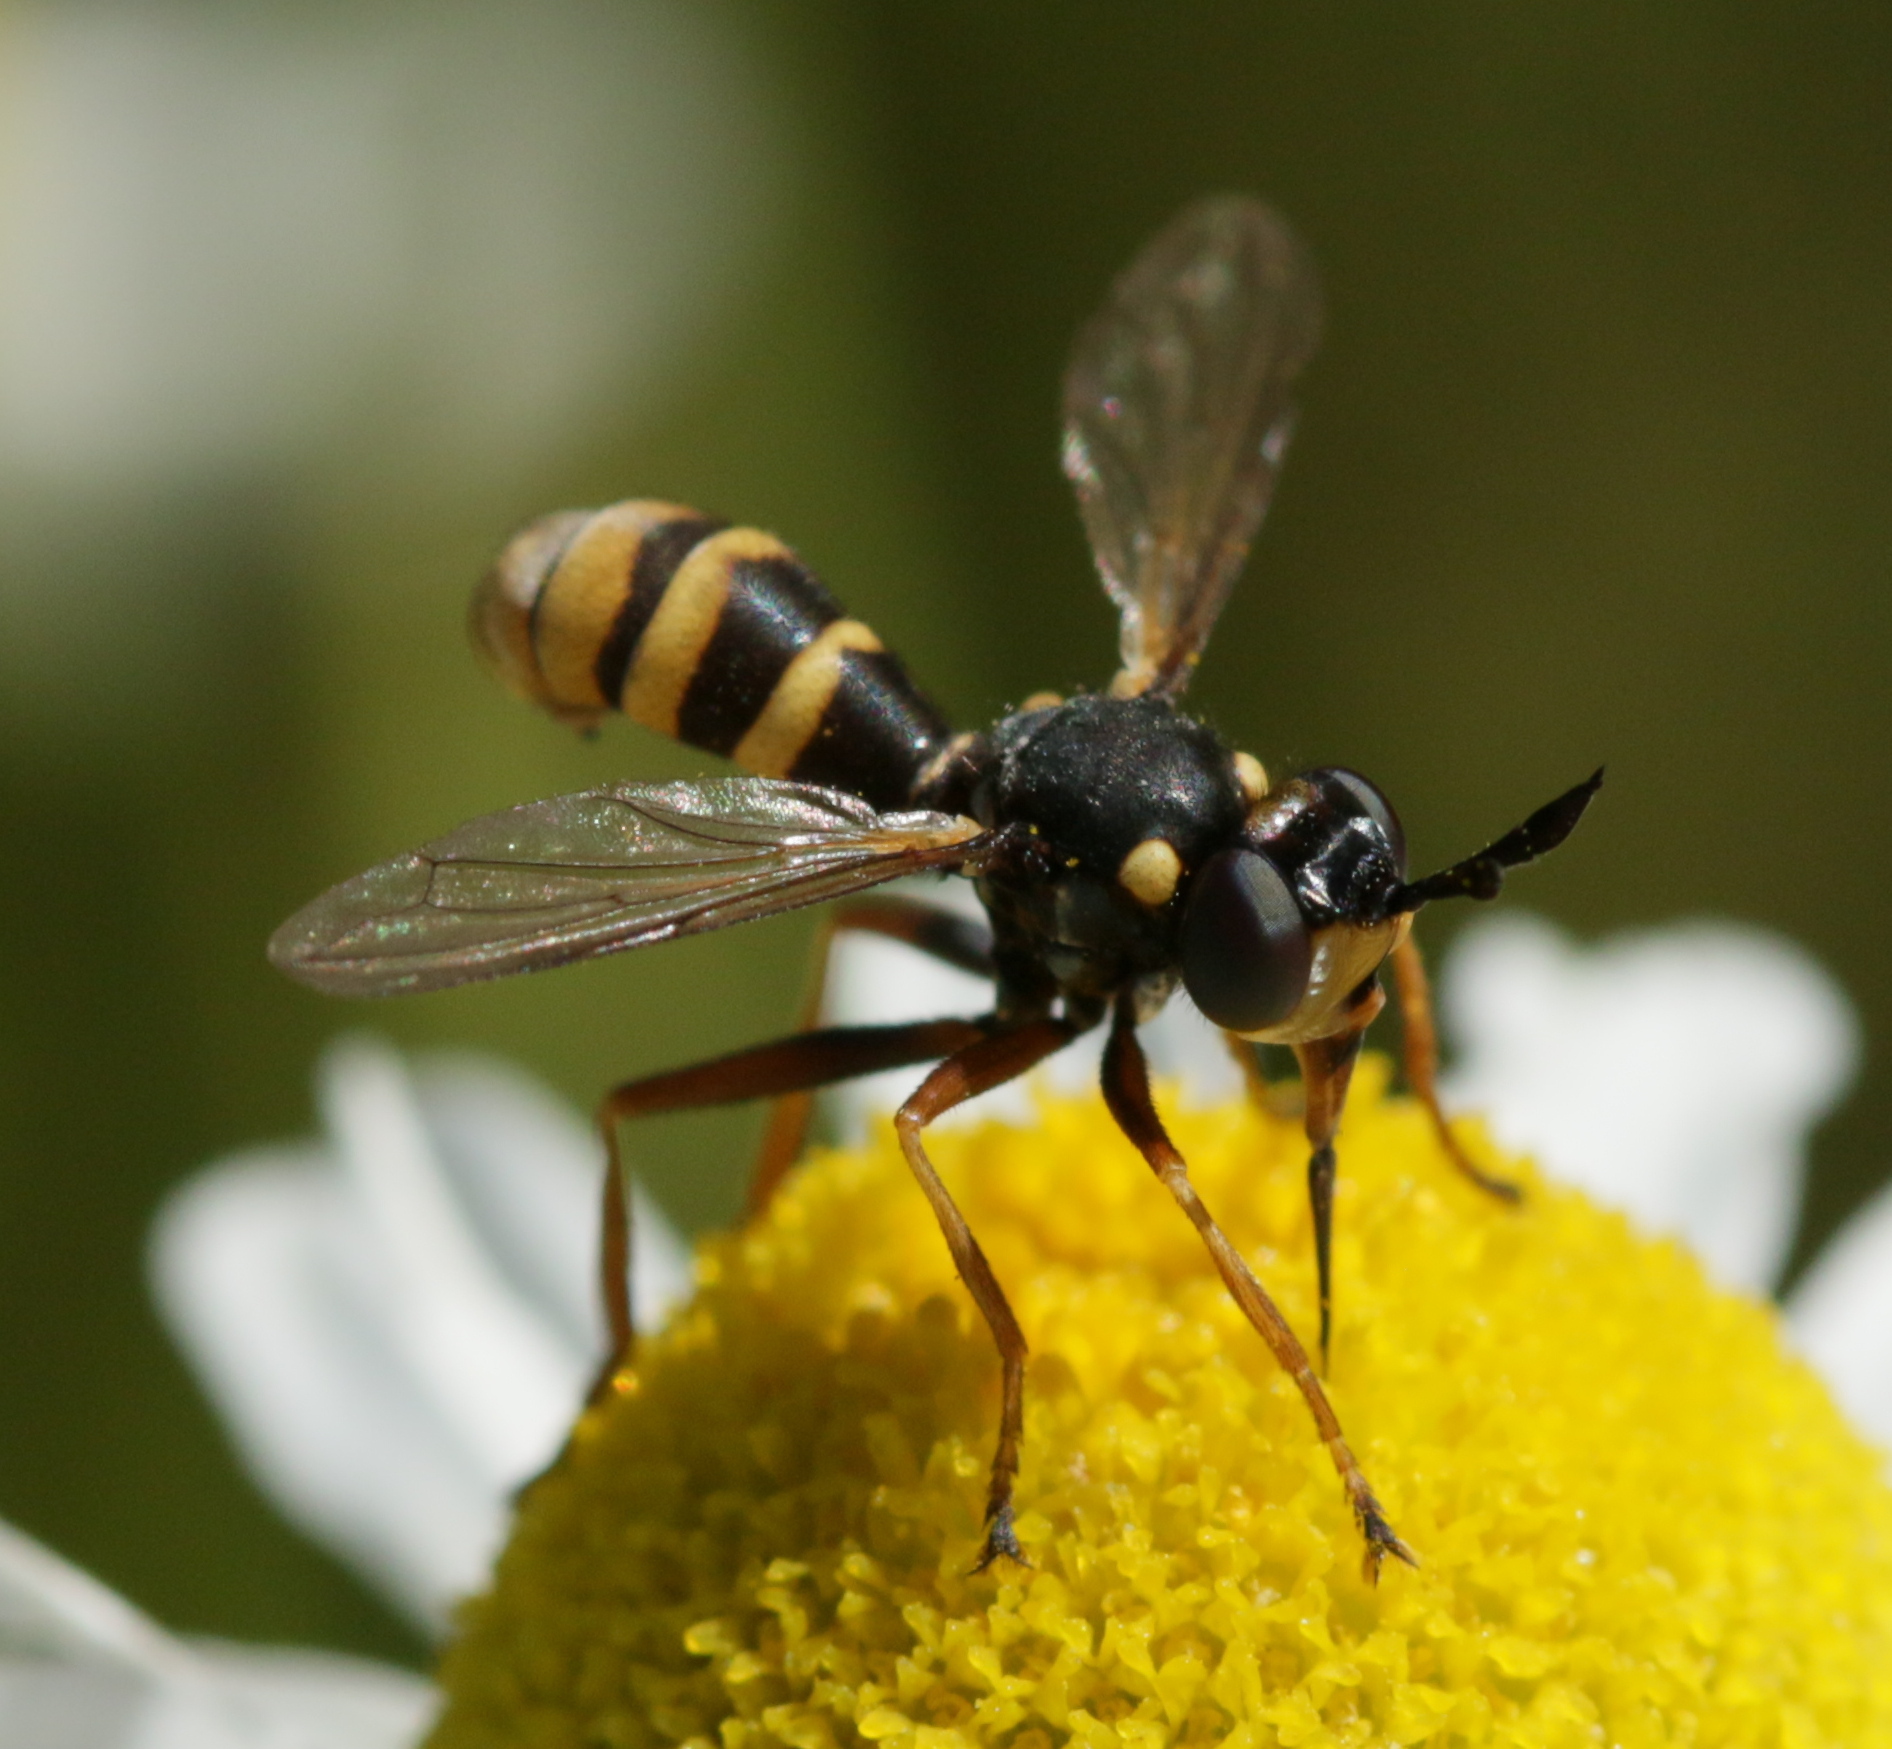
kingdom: Animalia
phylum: Arthropoda
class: Insecta
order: Diptera
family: Conopidae
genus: Conops
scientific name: Conops quadrifasciatus
